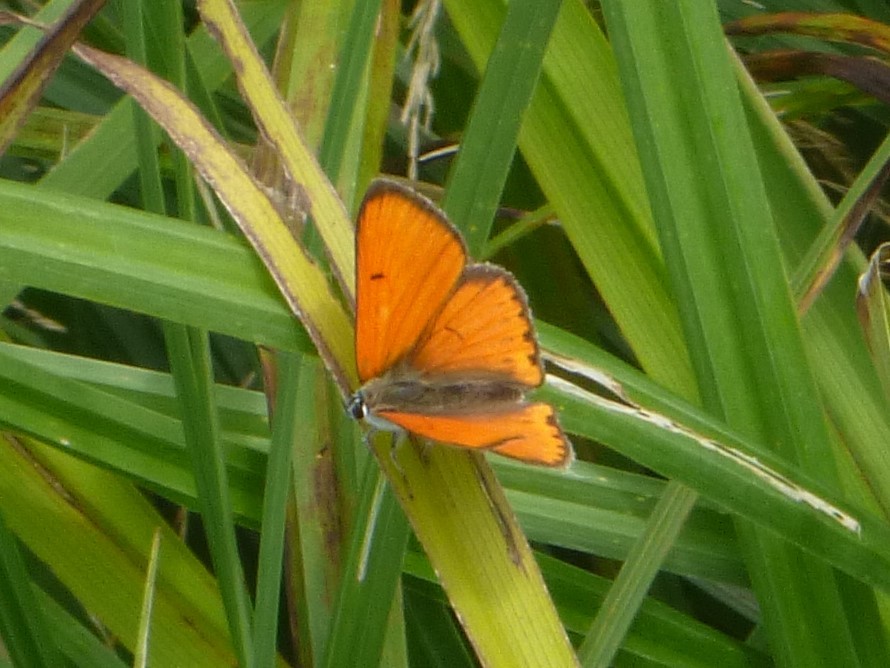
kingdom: Animalia
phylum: Arthropoda
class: Insecta
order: Lepidoptera
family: Lycaenidae
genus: Lycaena
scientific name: Lycaena dispar
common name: Large copper
